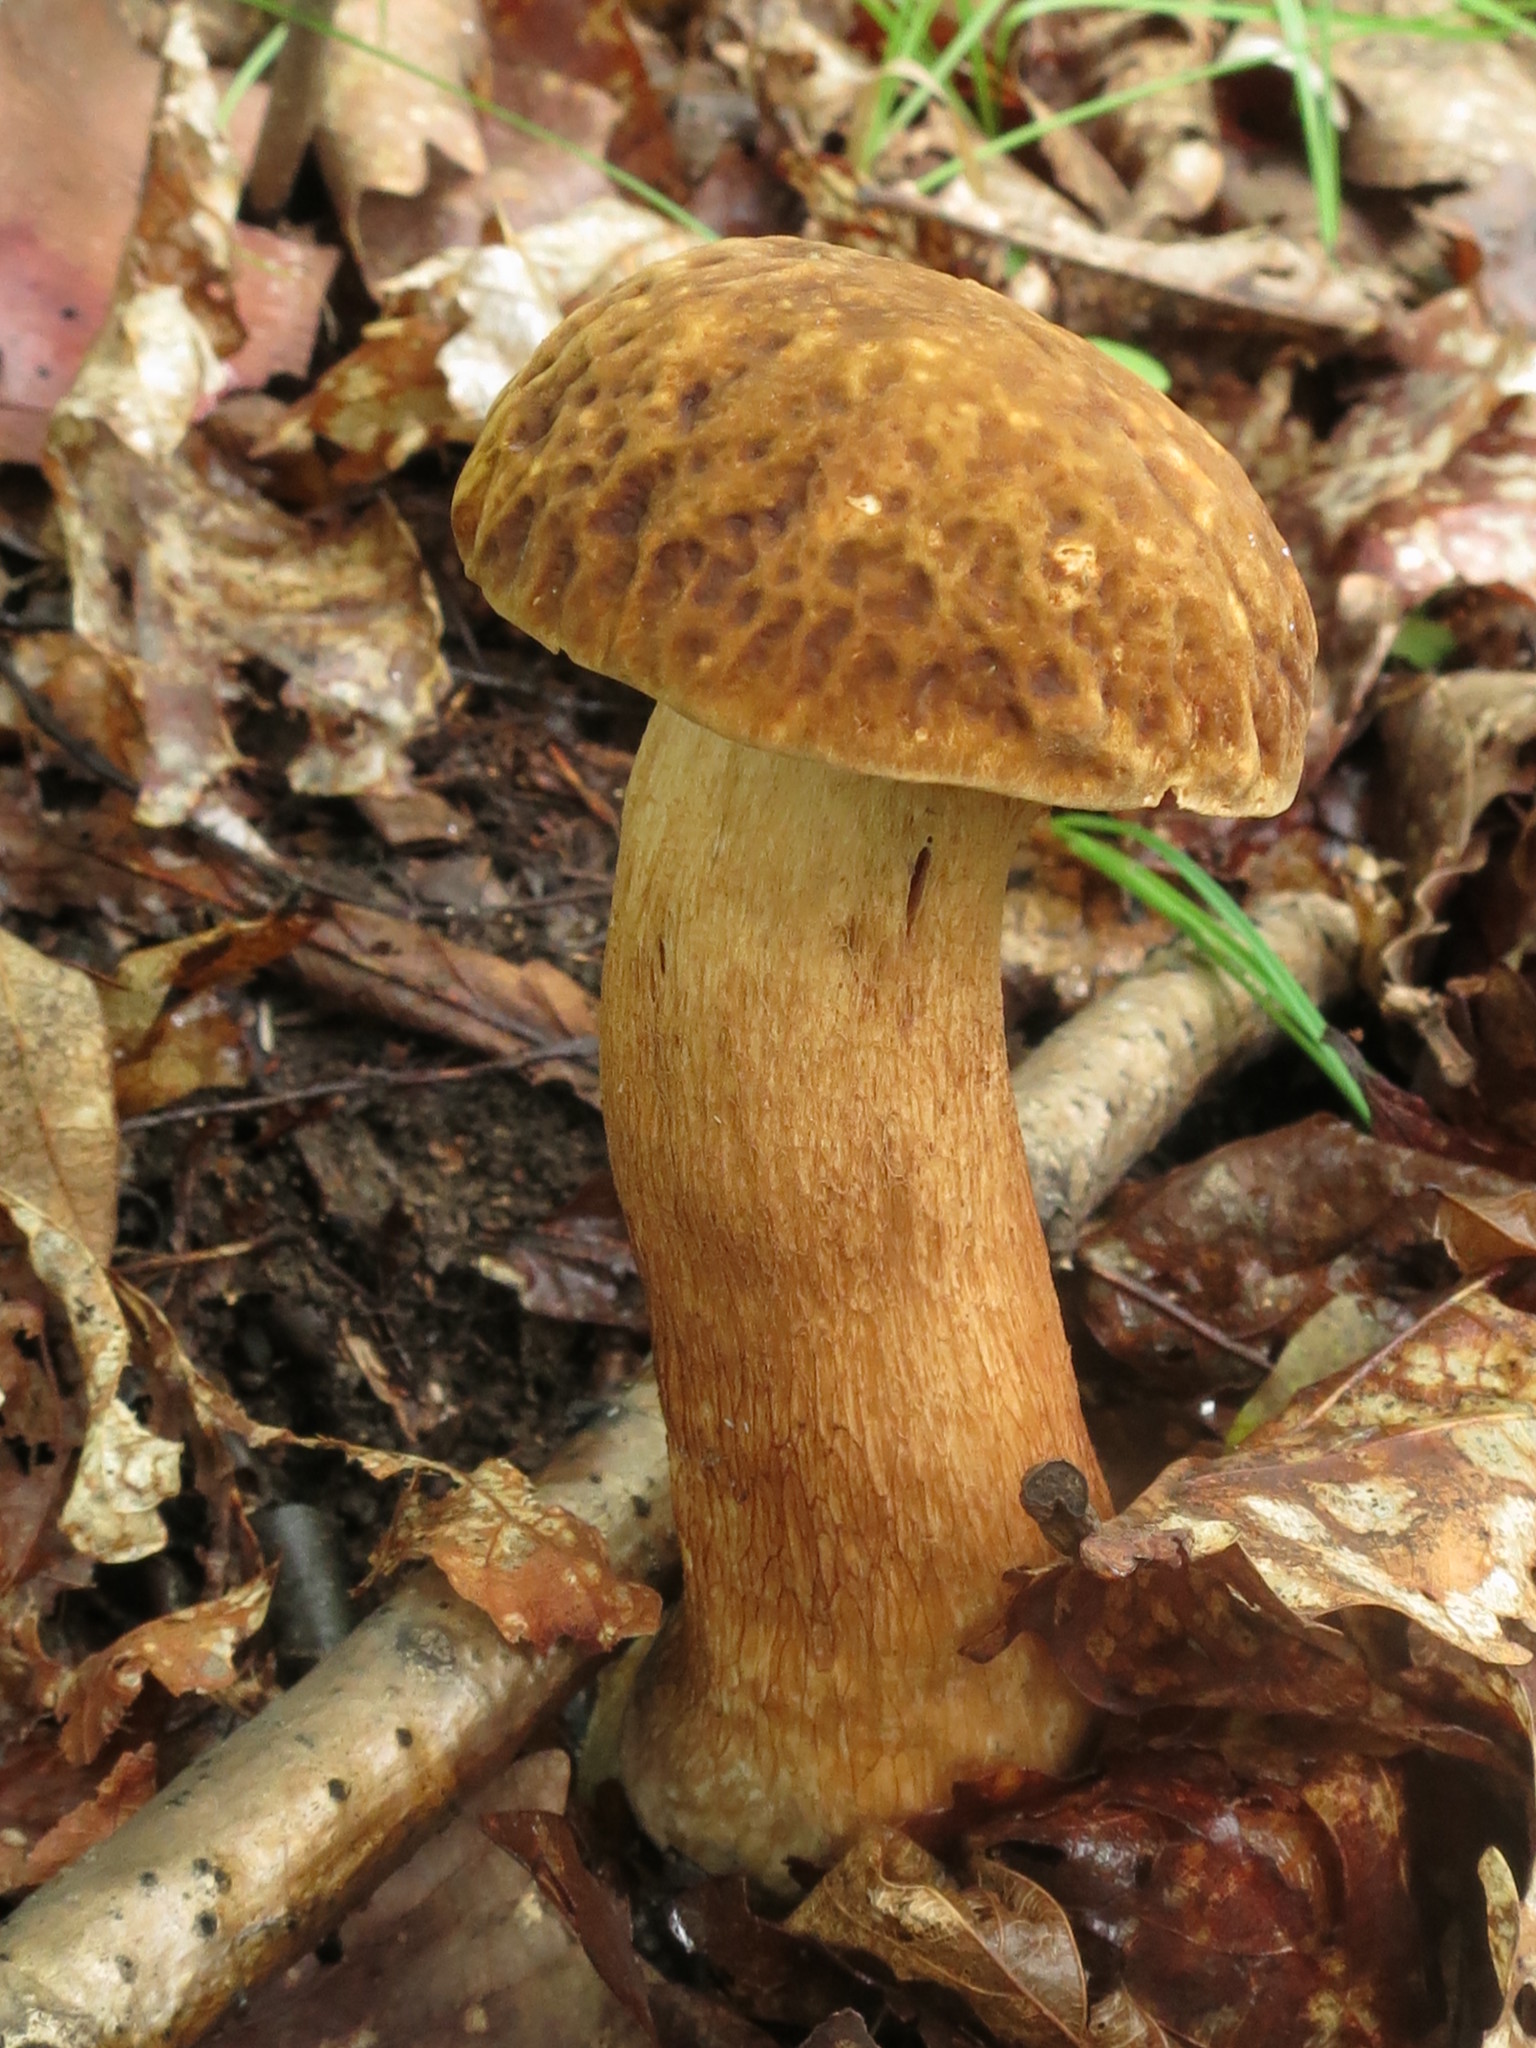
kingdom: Fungi
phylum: Basidiomycota
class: Agaricomycetes
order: Boletales
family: Boletaceae
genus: Boletus
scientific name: Boletus reticulatus
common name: Summer bolete
